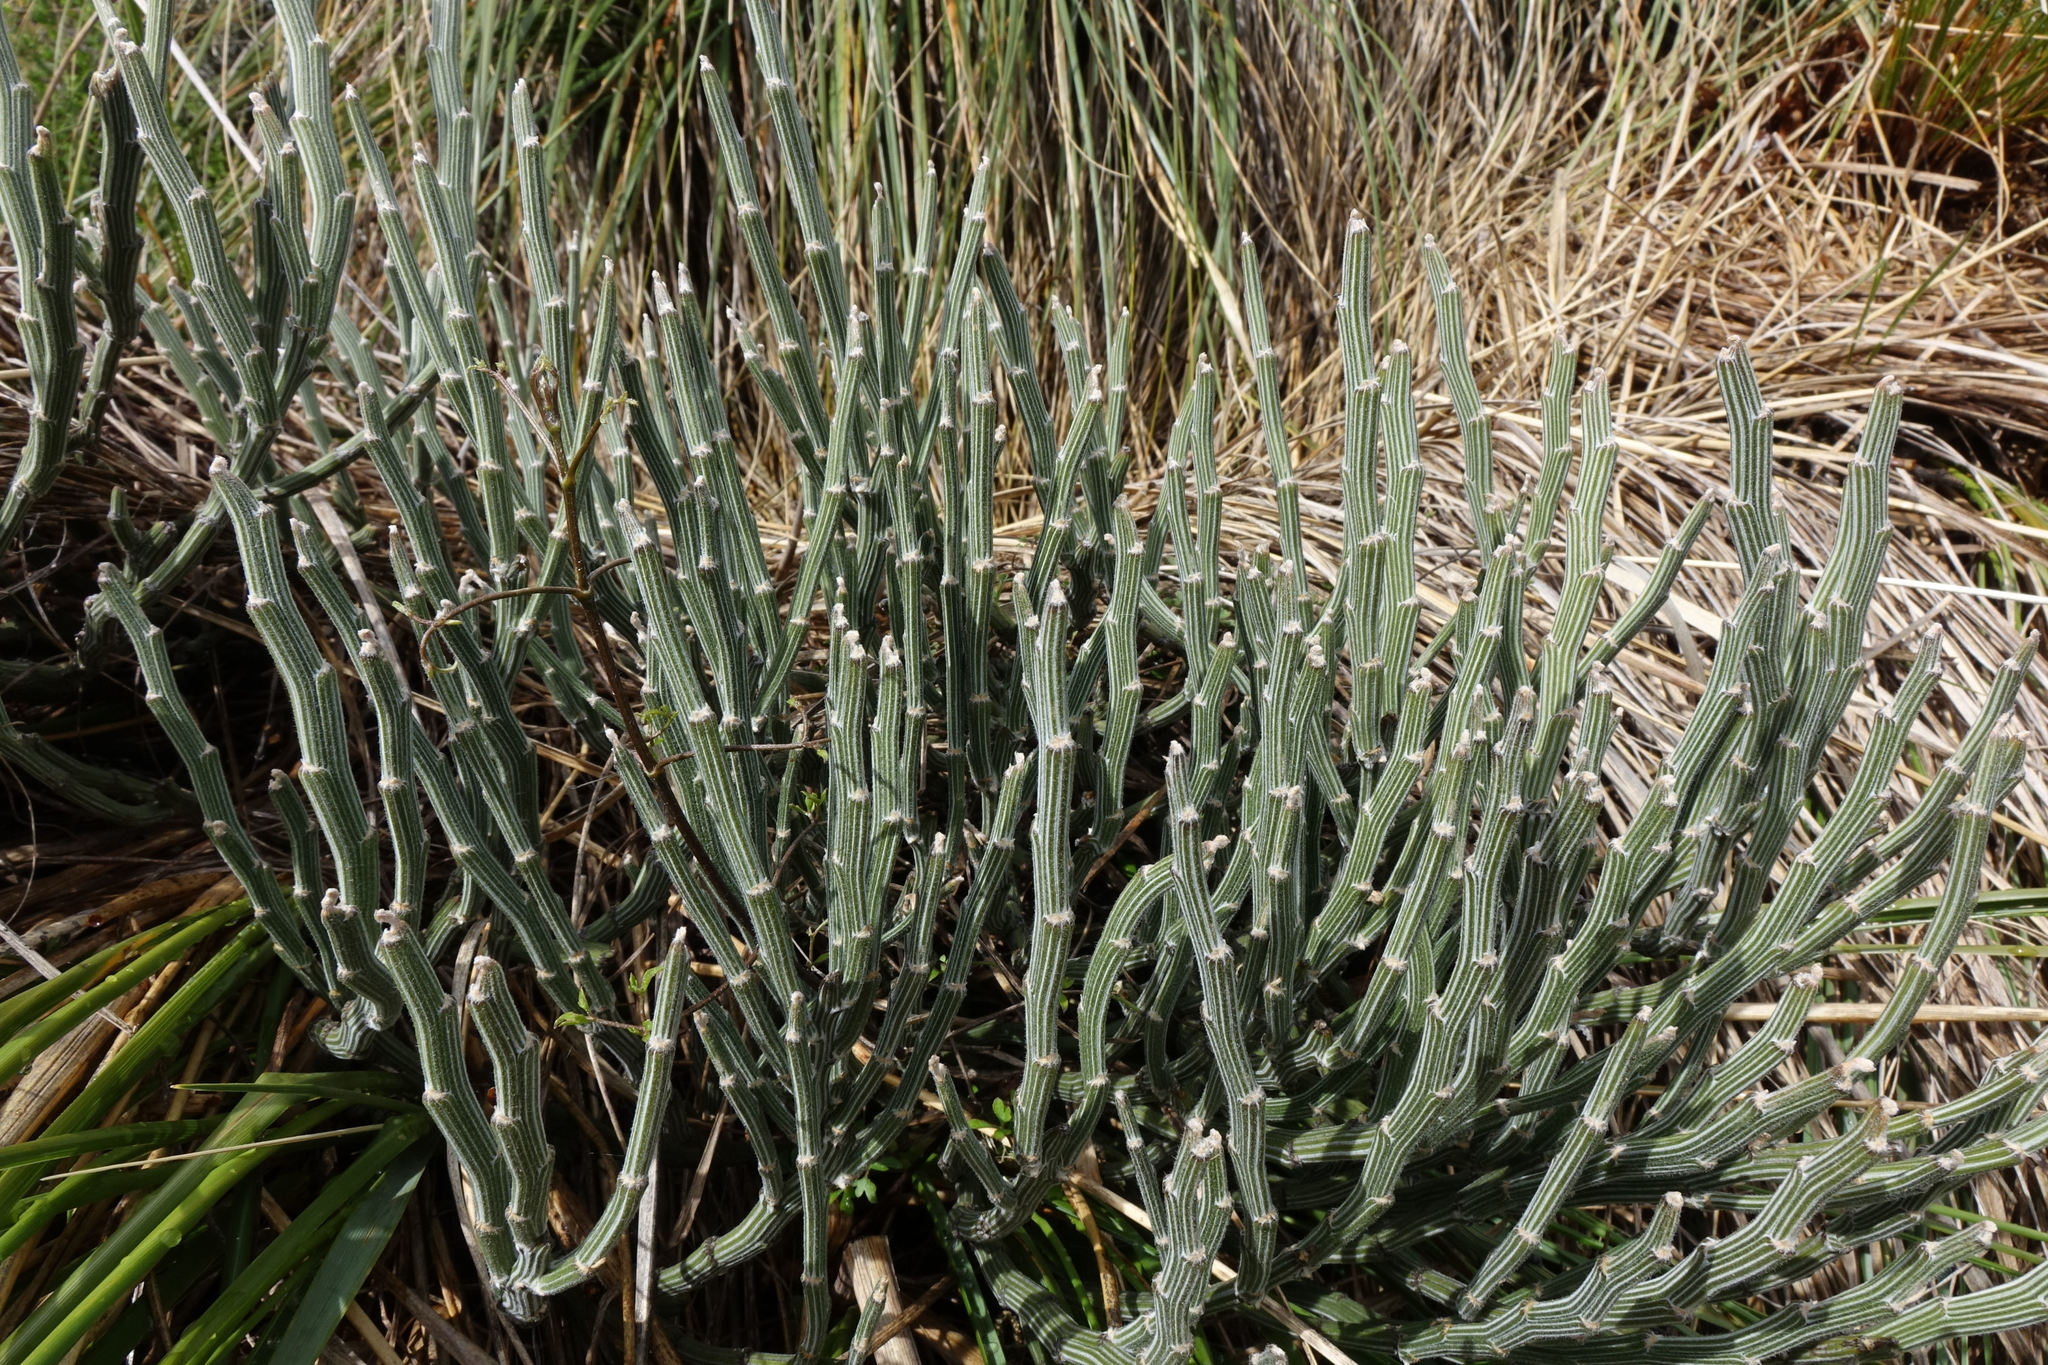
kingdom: Plantae
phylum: Tracheophyta
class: Magnoliopsida
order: Fabales
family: Fabaceae
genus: Carmichaelia
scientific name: Carmichaelia crassicaulis
